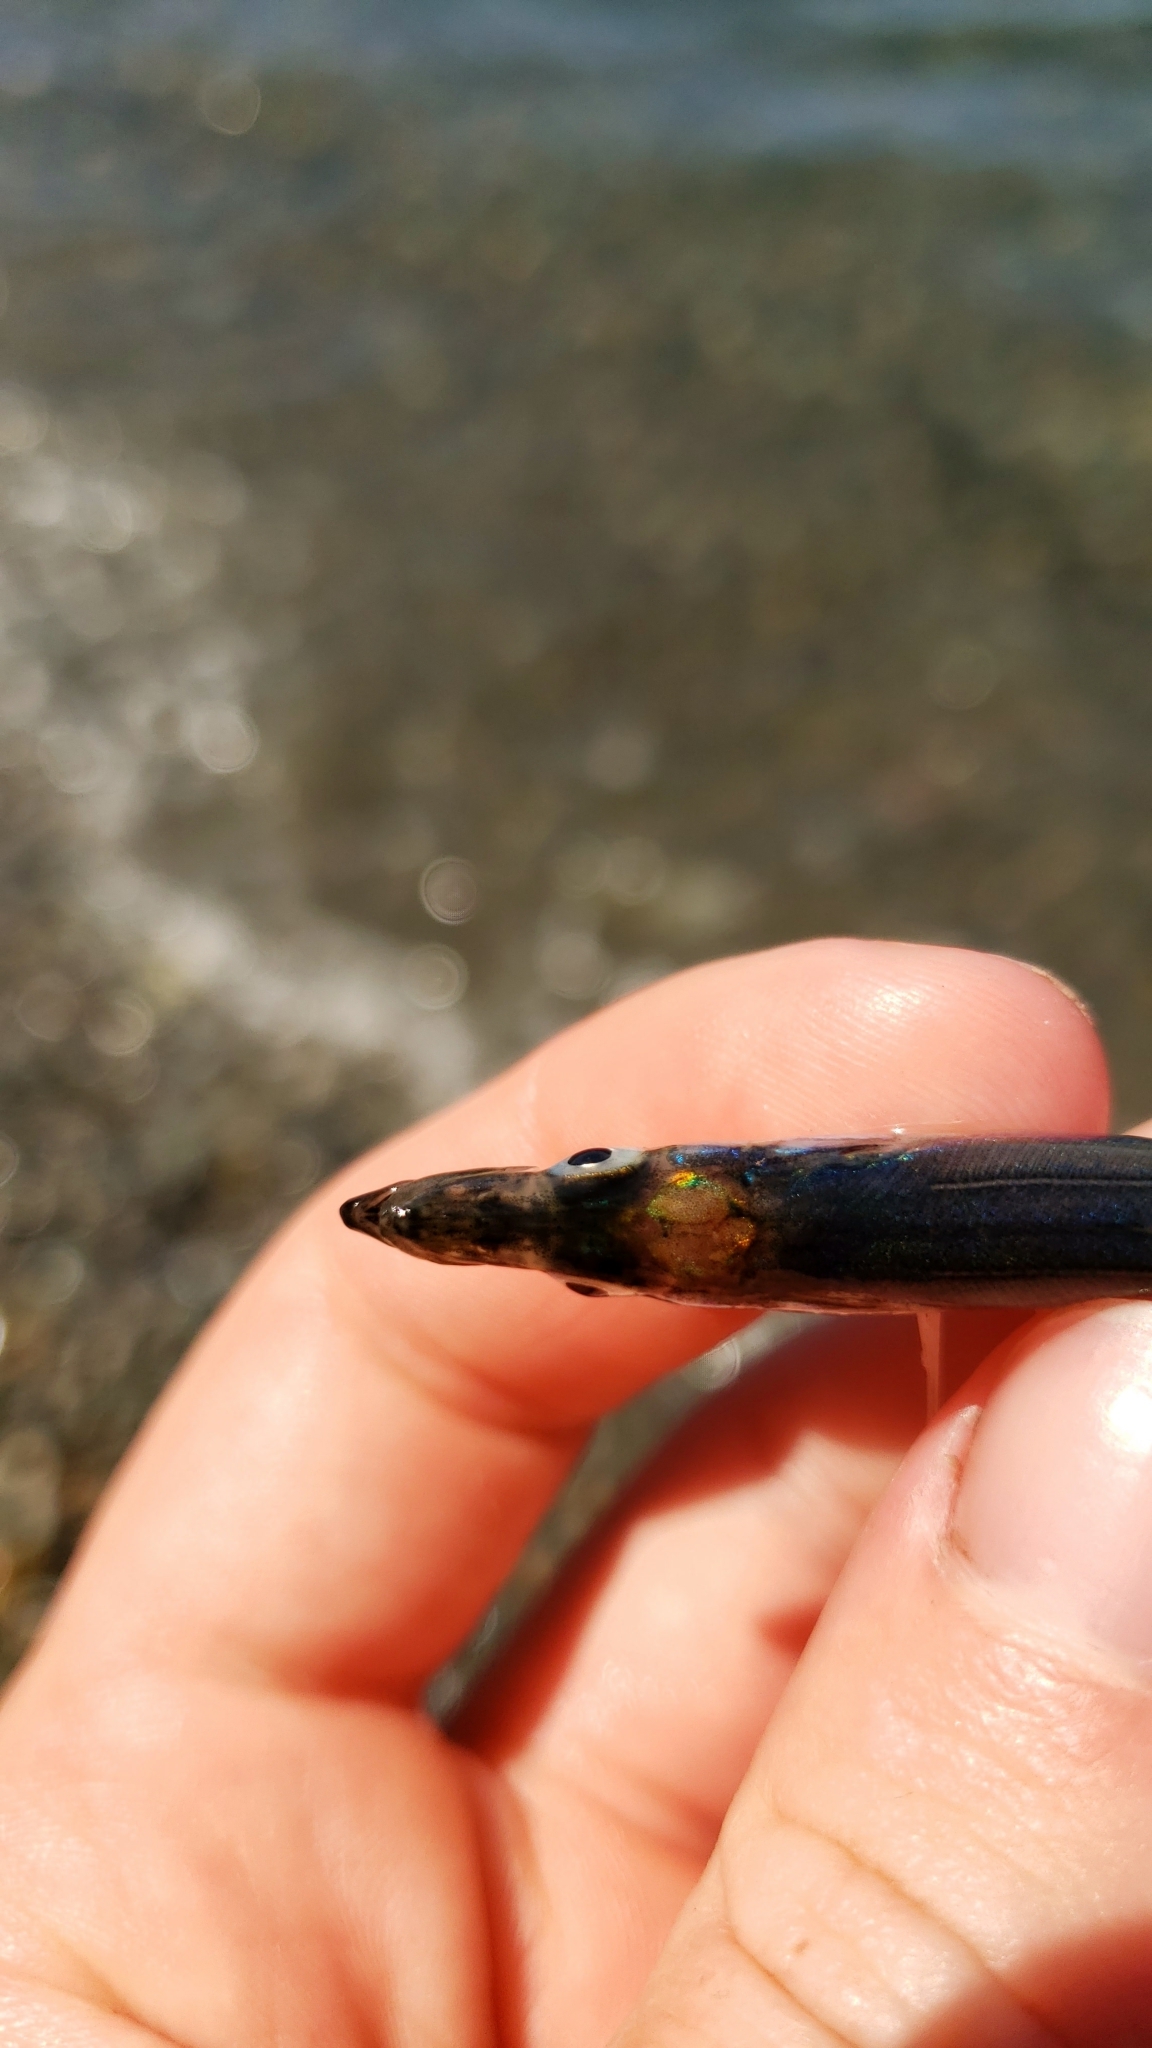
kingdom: Animalia
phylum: Chordata
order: Perciformes
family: Ammodytidae
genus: Ammodytes
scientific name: Ammodytes personatus
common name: Japanese sand lance
